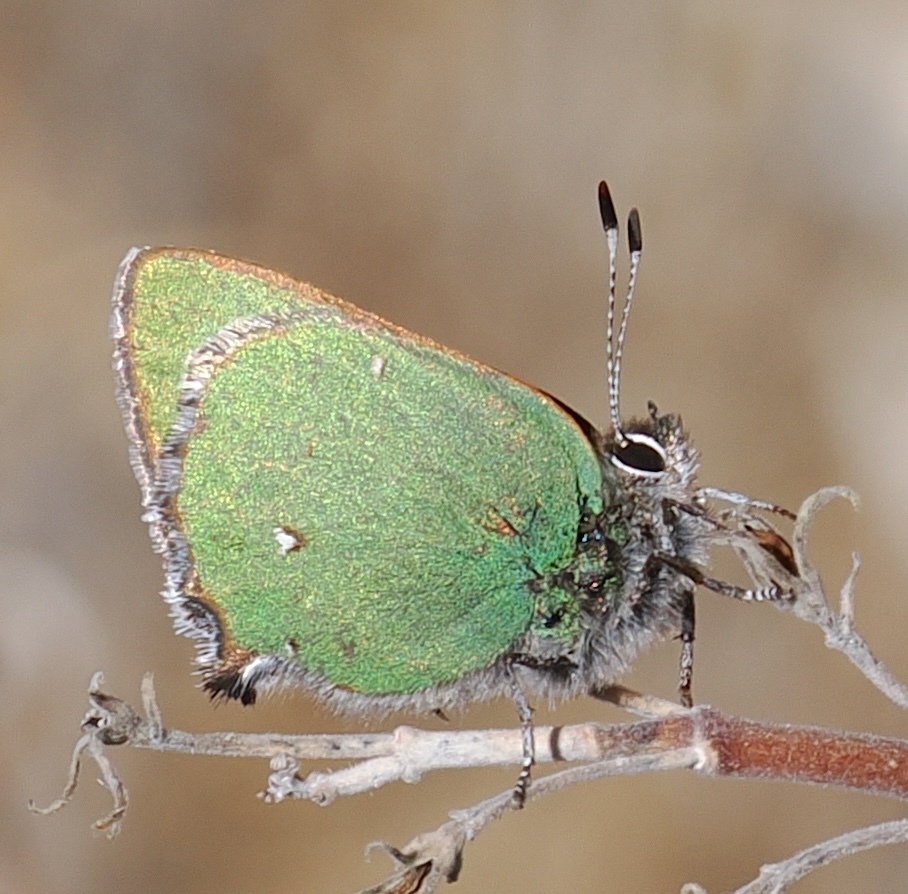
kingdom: Animalia
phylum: Arthropoda
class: Insecta
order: Lepidoptera
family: Lycaenidae
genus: Callophrys
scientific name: Callophrys dumetorum
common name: Bramble hairstreak
